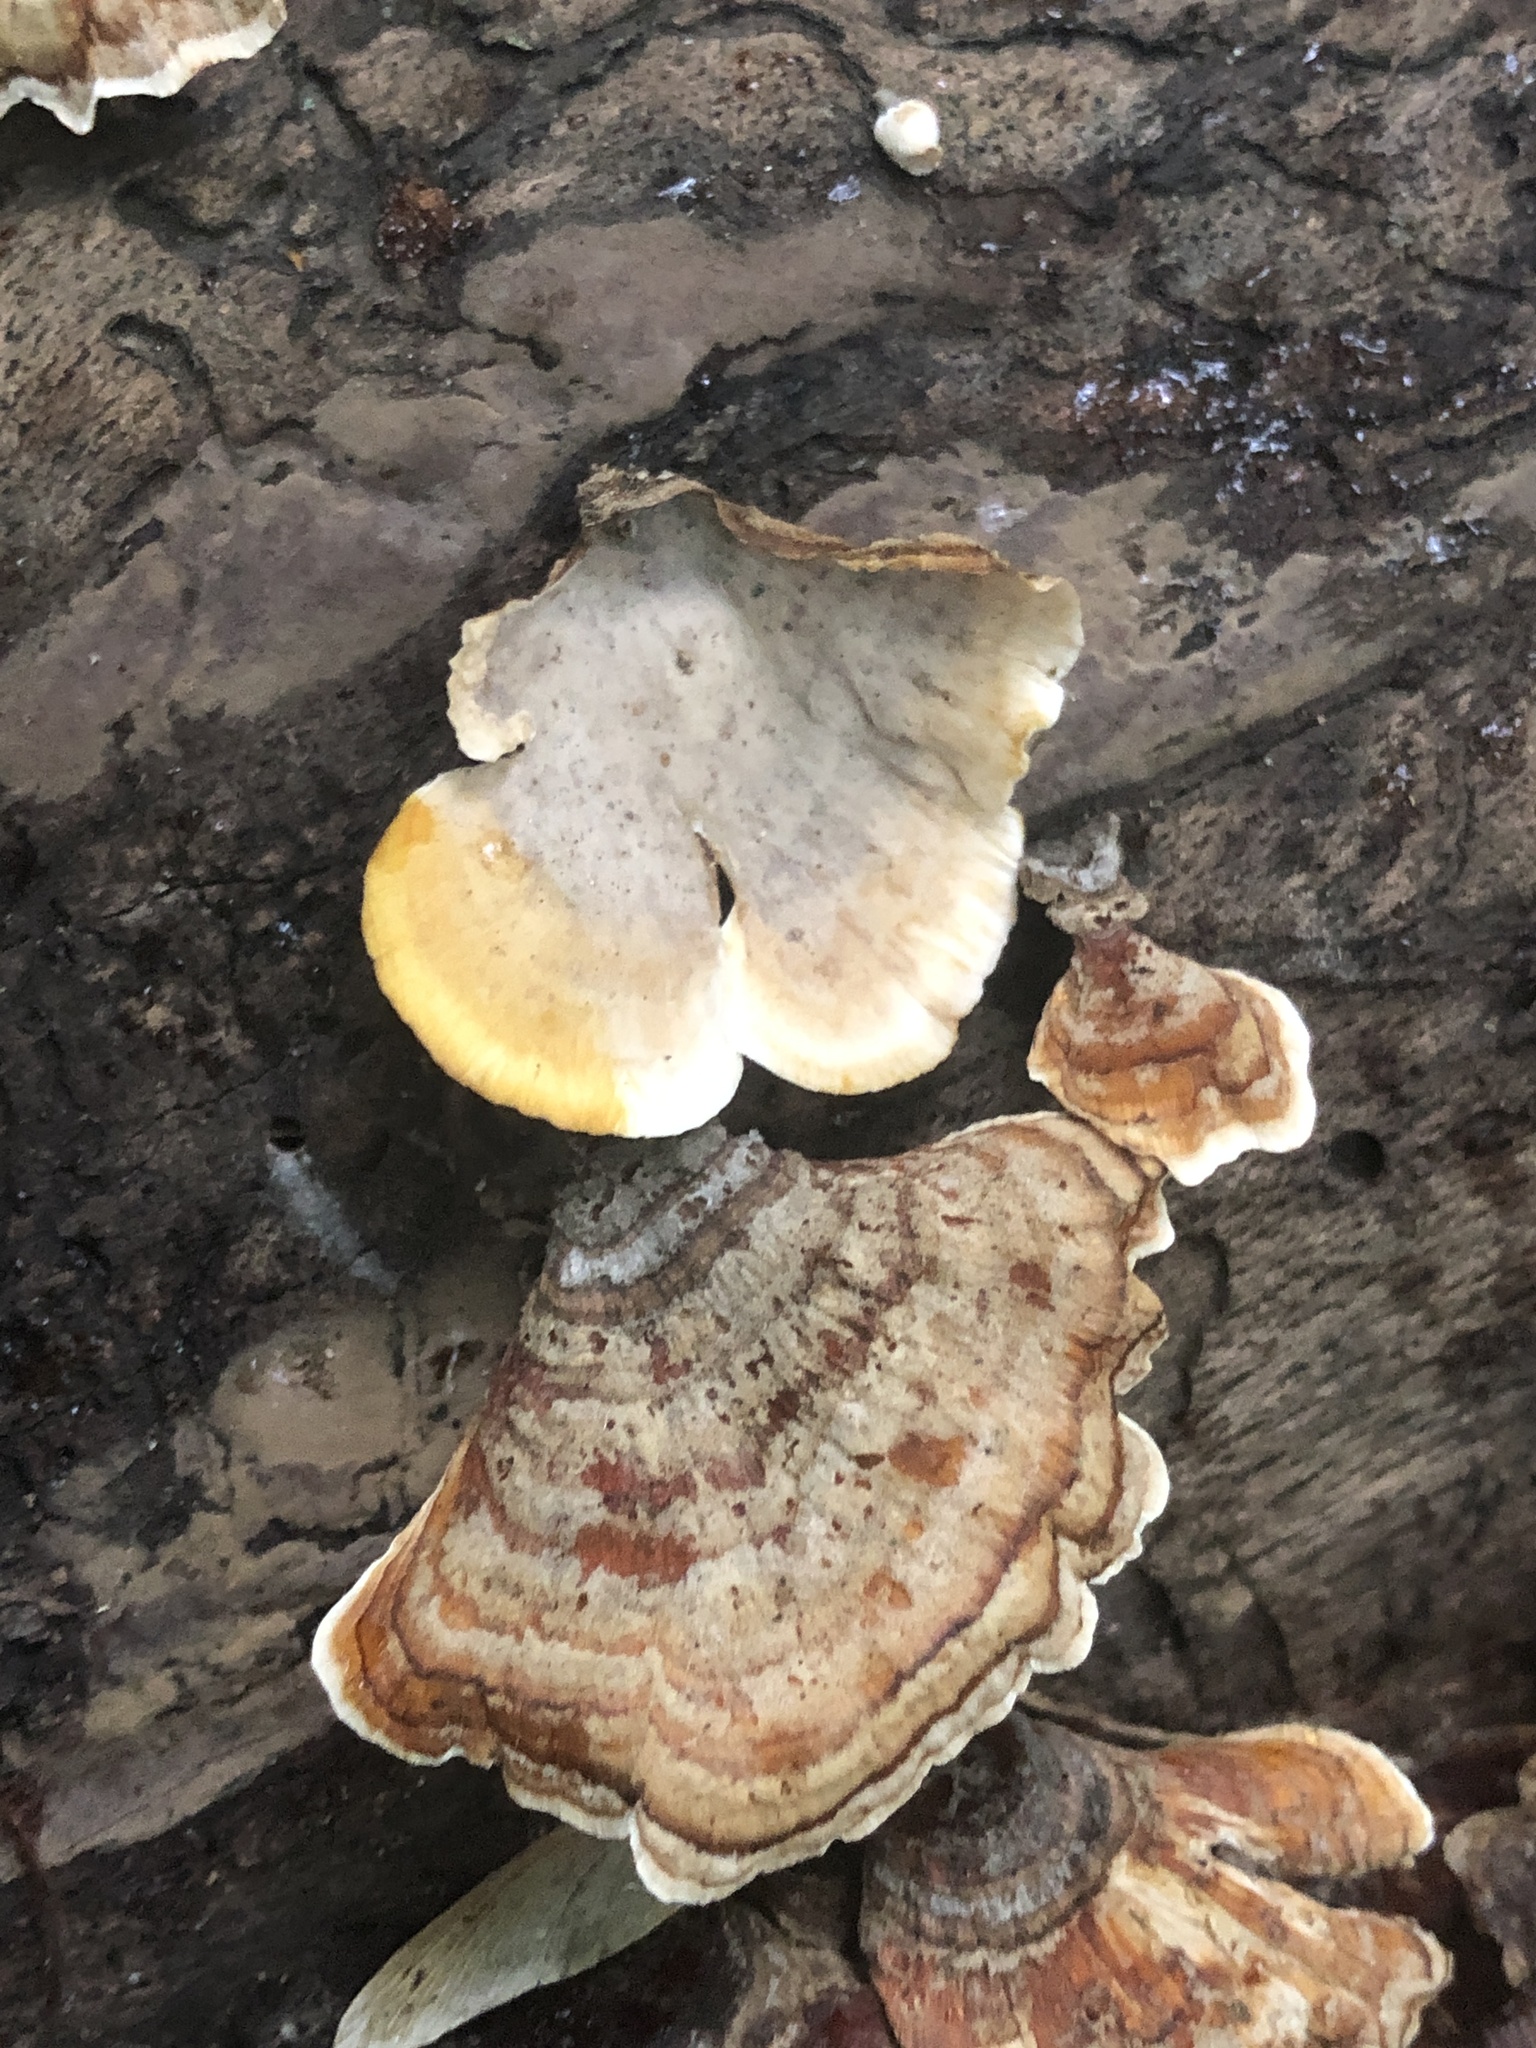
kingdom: Fungi
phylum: Basidiomycota
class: Agaricomycetes
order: Russulales
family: Stereaceae
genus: Stereum
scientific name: Stereum lobatum
